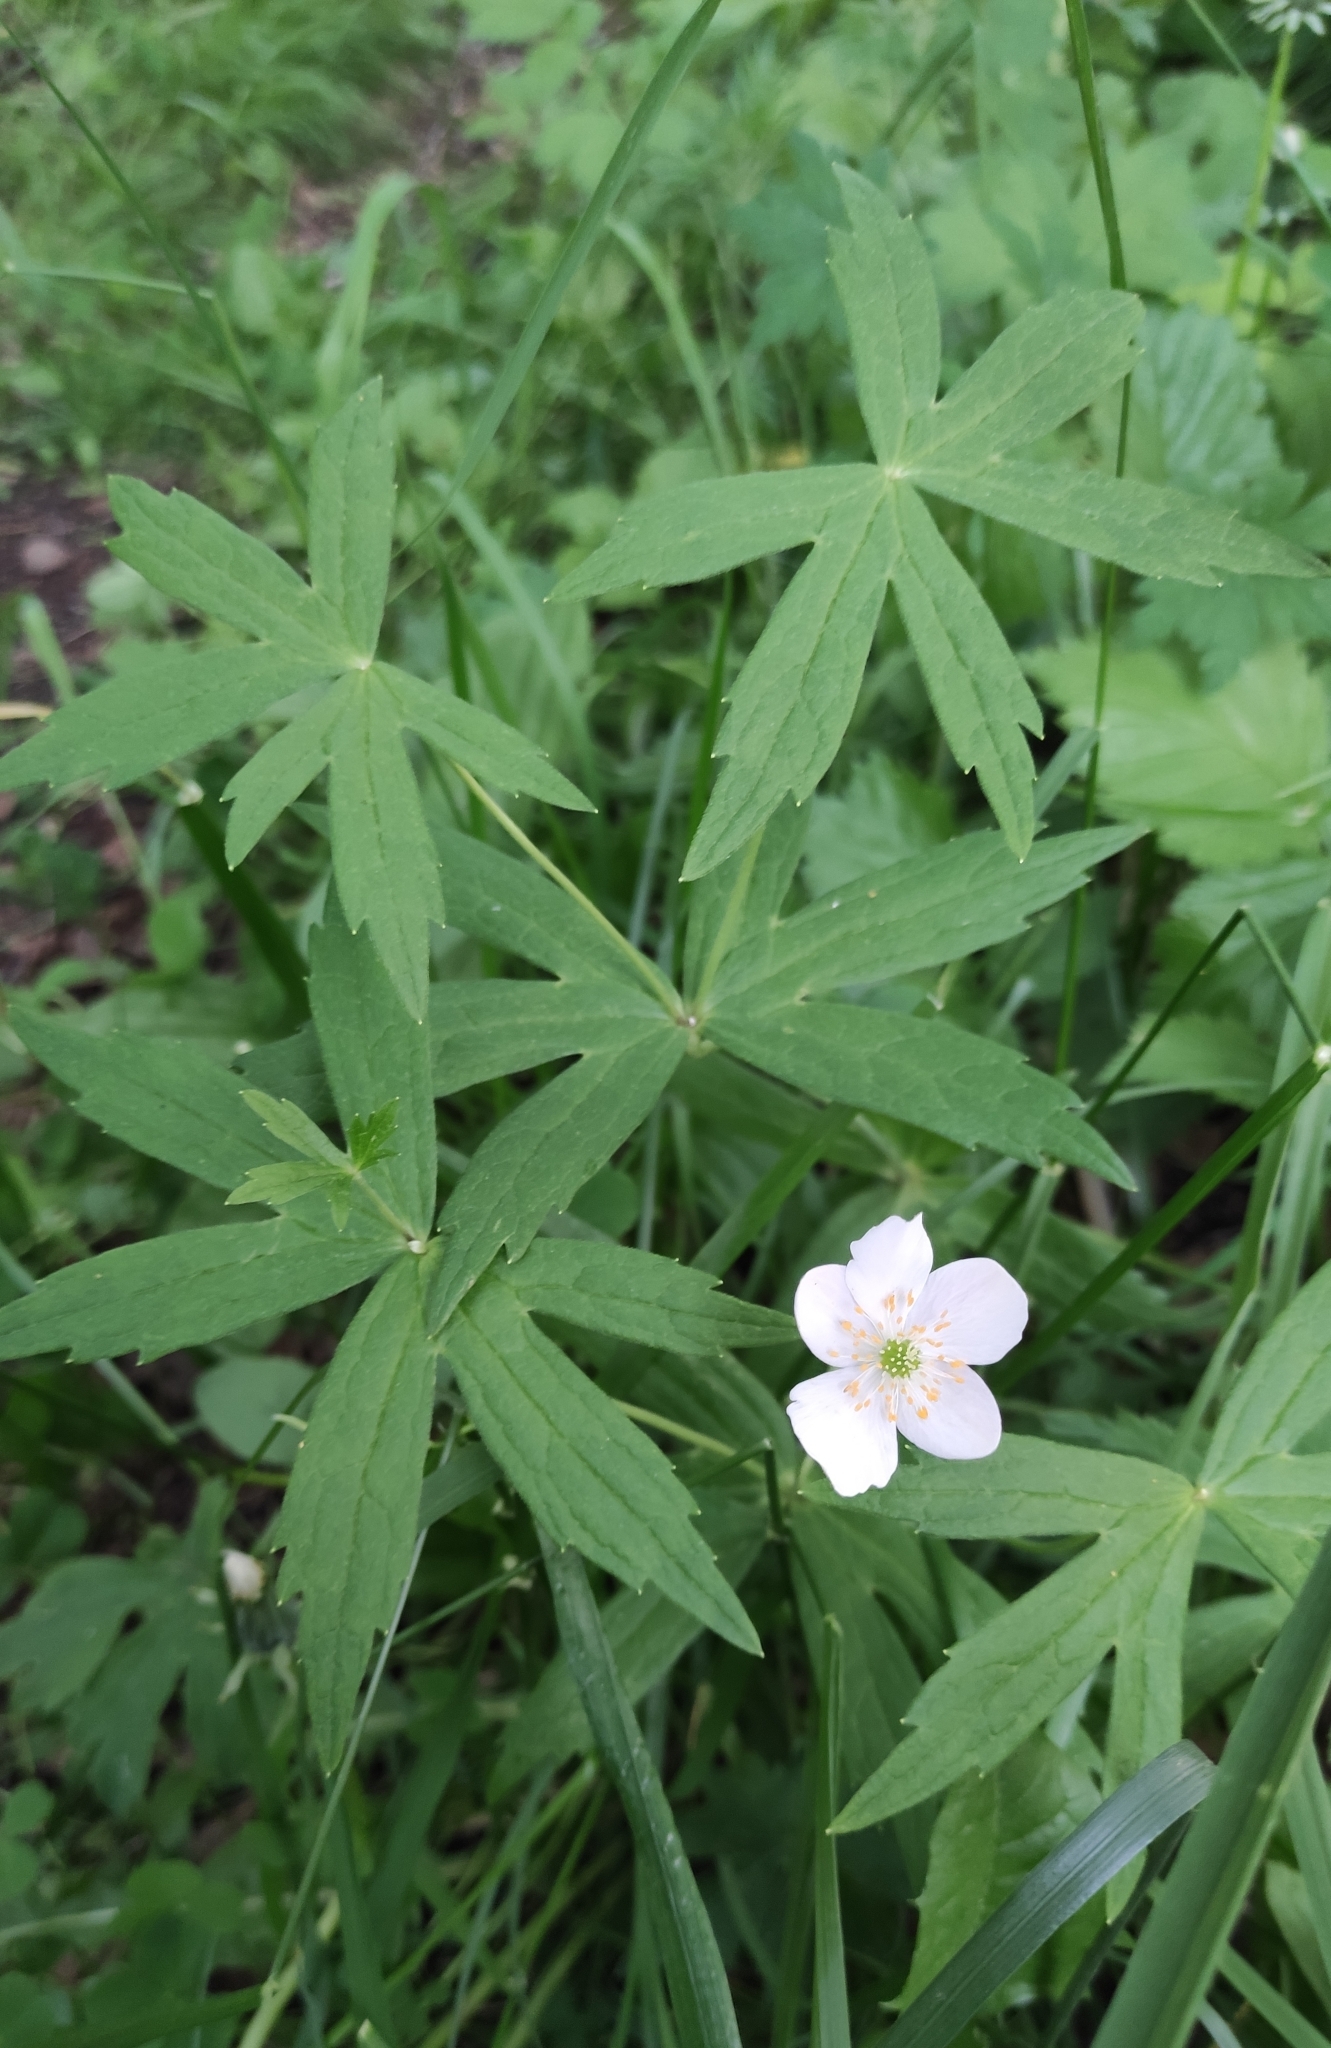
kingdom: Plantae
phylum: Tracheophyta
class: Magnoliopsida
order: Ranunculales
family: Ranunculaceae
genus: Anemonastrum
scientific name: Anemonastrum dichotomum
